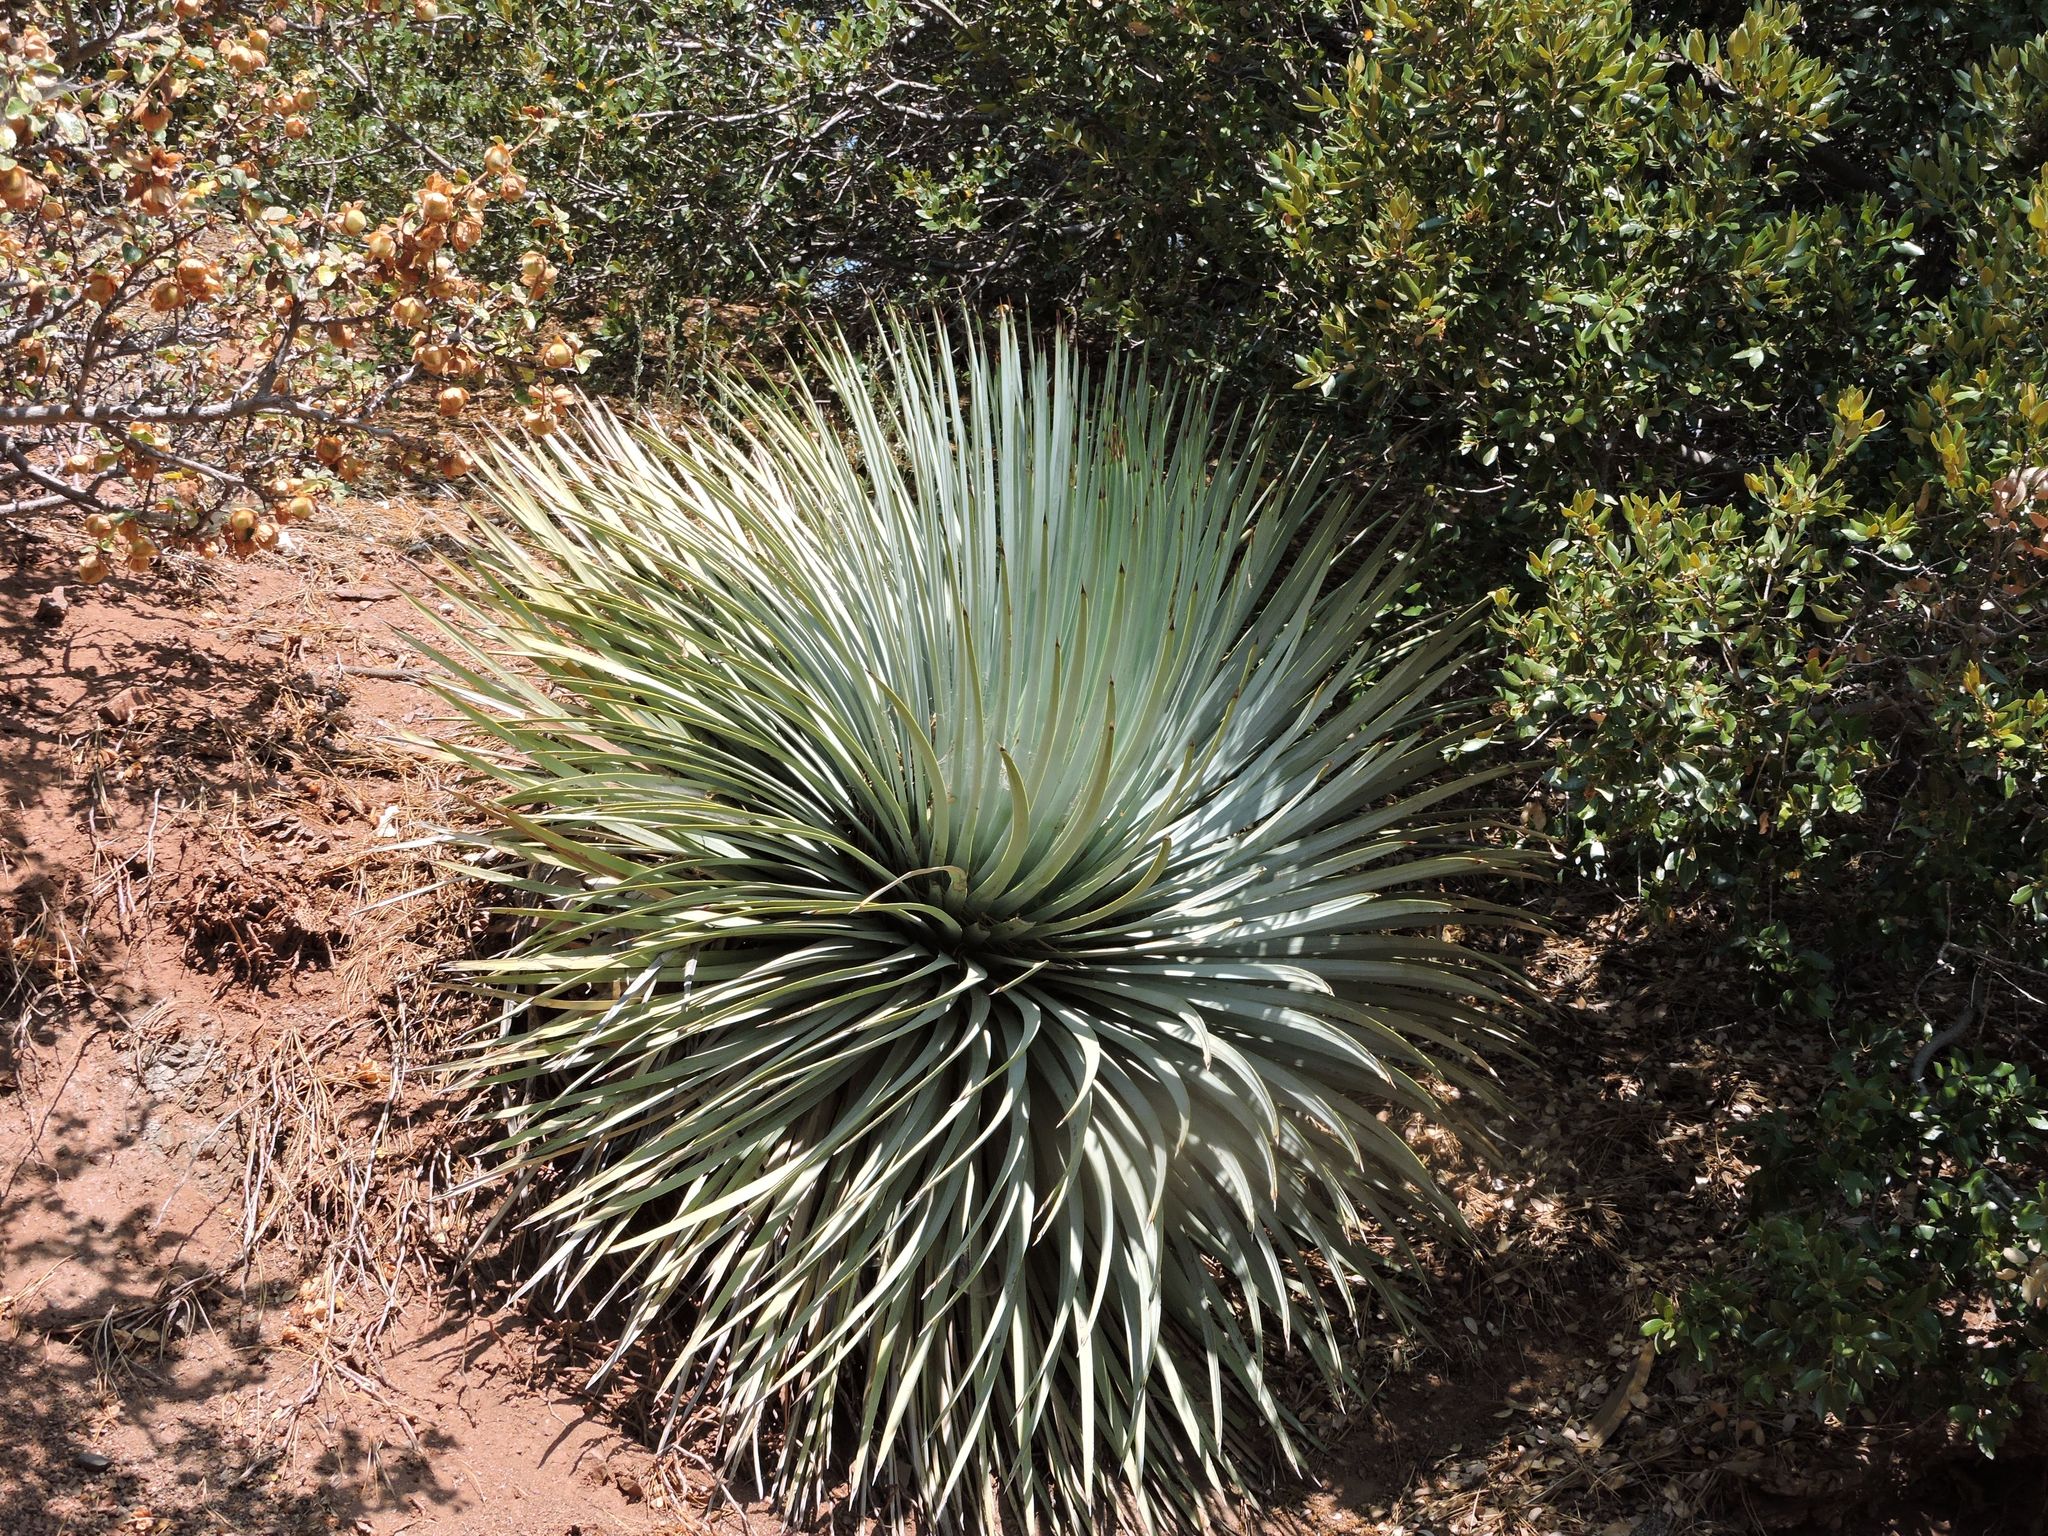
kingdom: Plantae
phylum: Tracheophyta
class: Liliopsida
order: Asparagales
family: Asparagaceae
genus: Hesperoyucca
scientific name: Hesperoyucca whipplei
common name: Our lord's-candle
